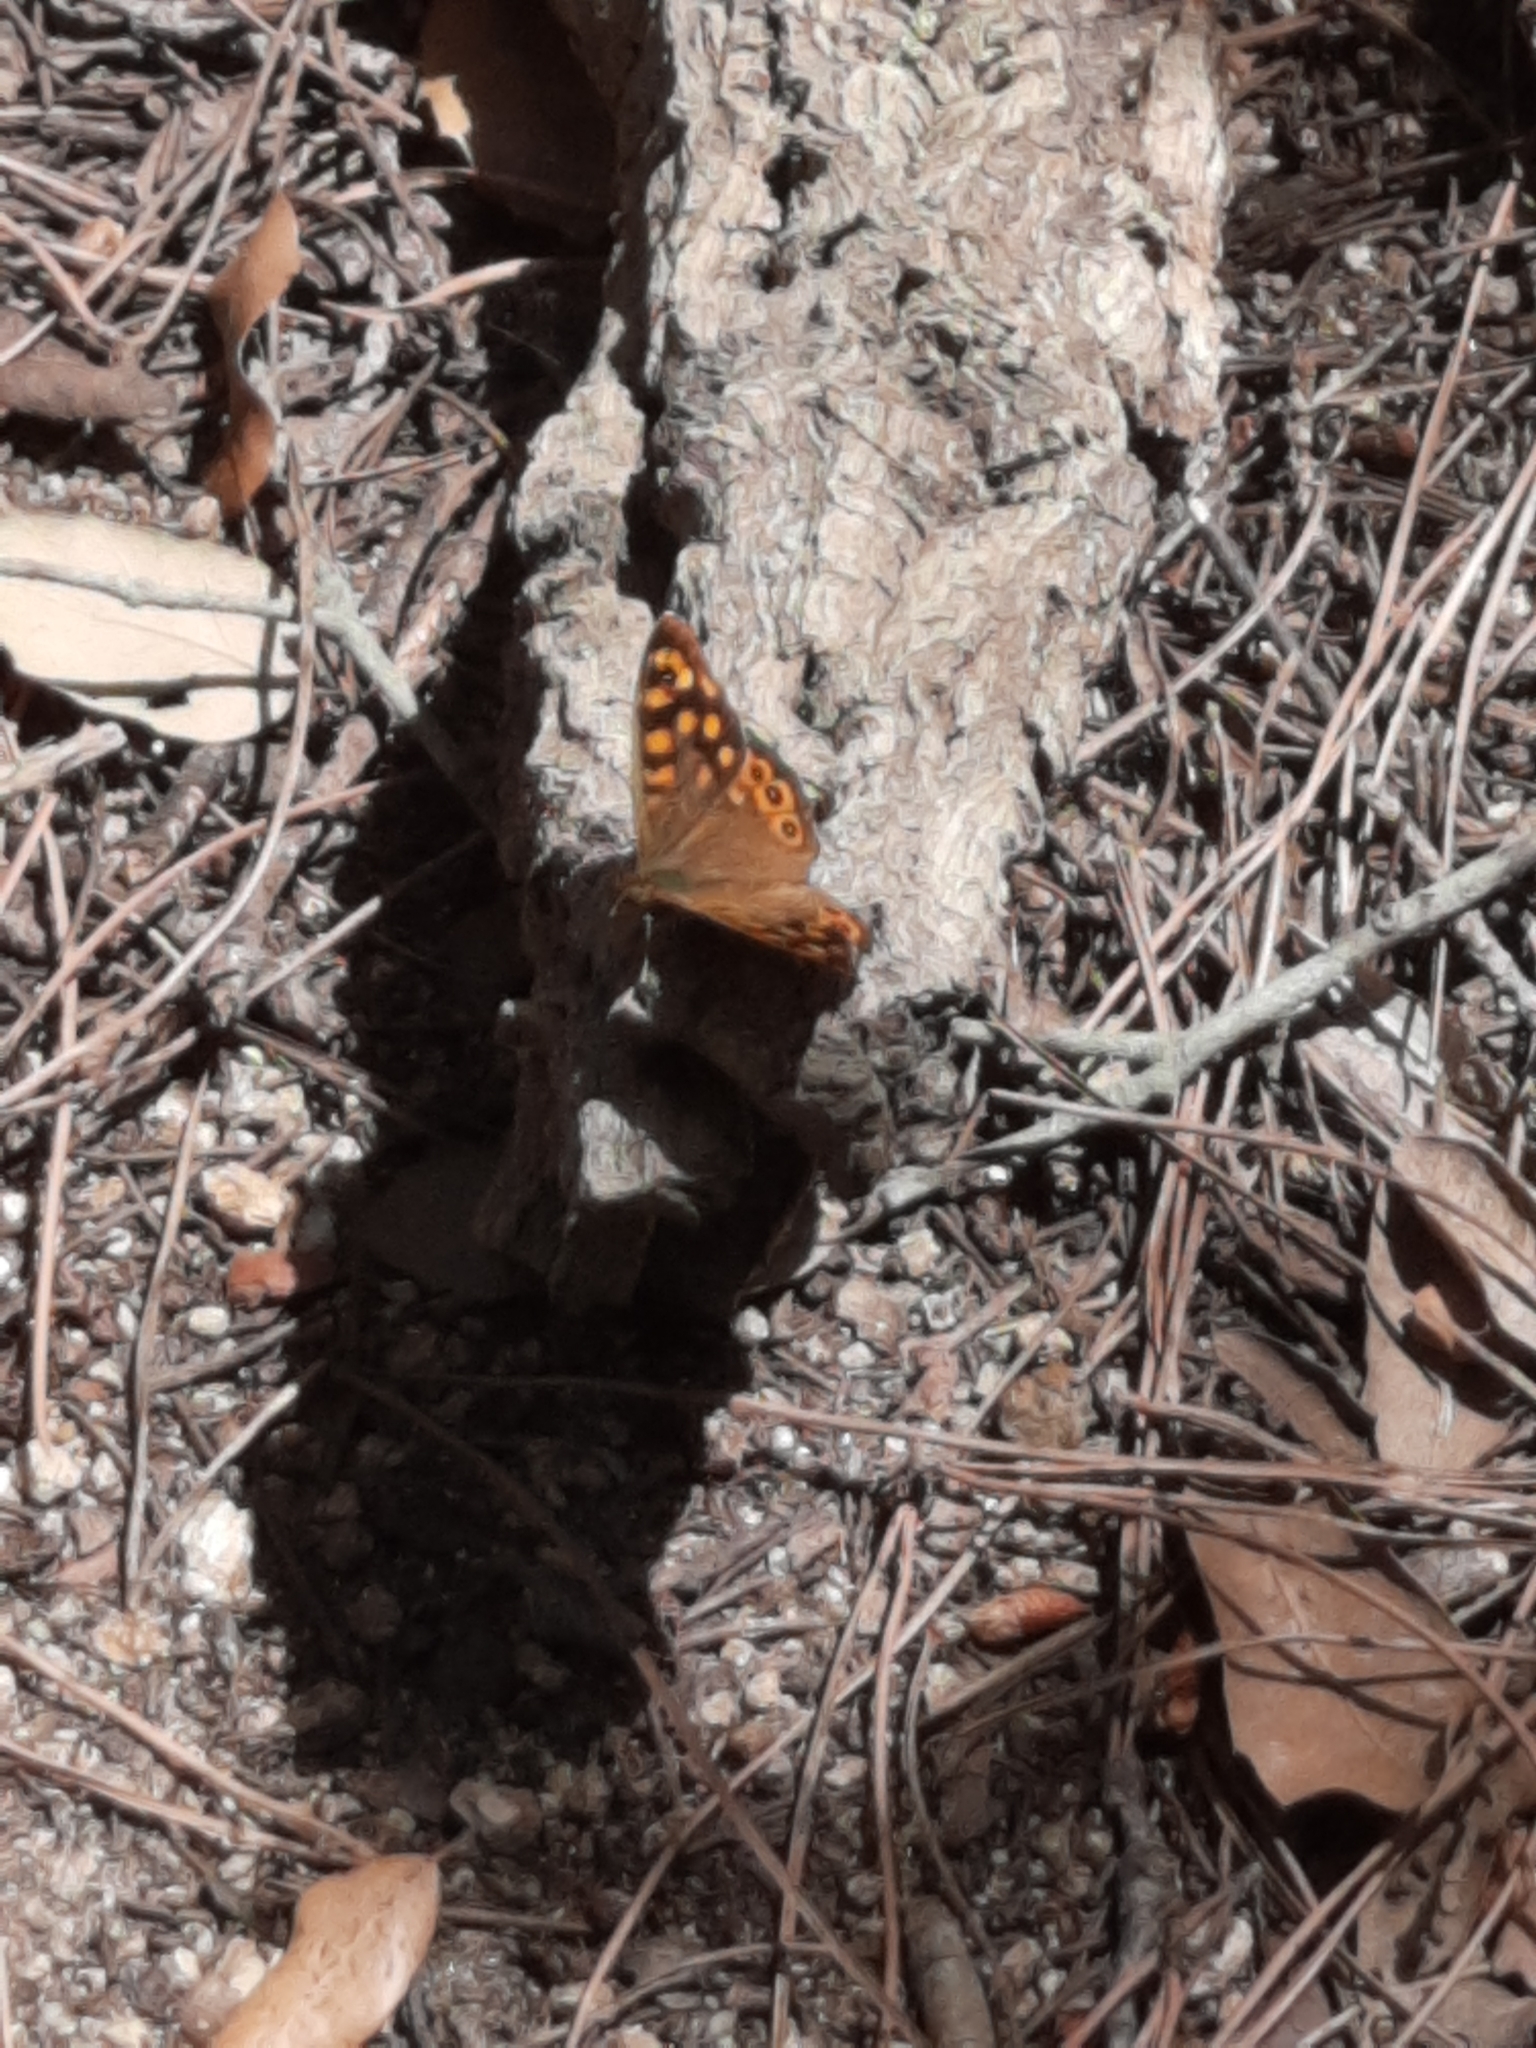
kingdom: Animalia
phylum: Arthropoda
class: Insecta
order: Lepidoptera
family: Nymphalidae
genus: Pararge
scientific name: Pararge aegeria
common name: Speckled wood
